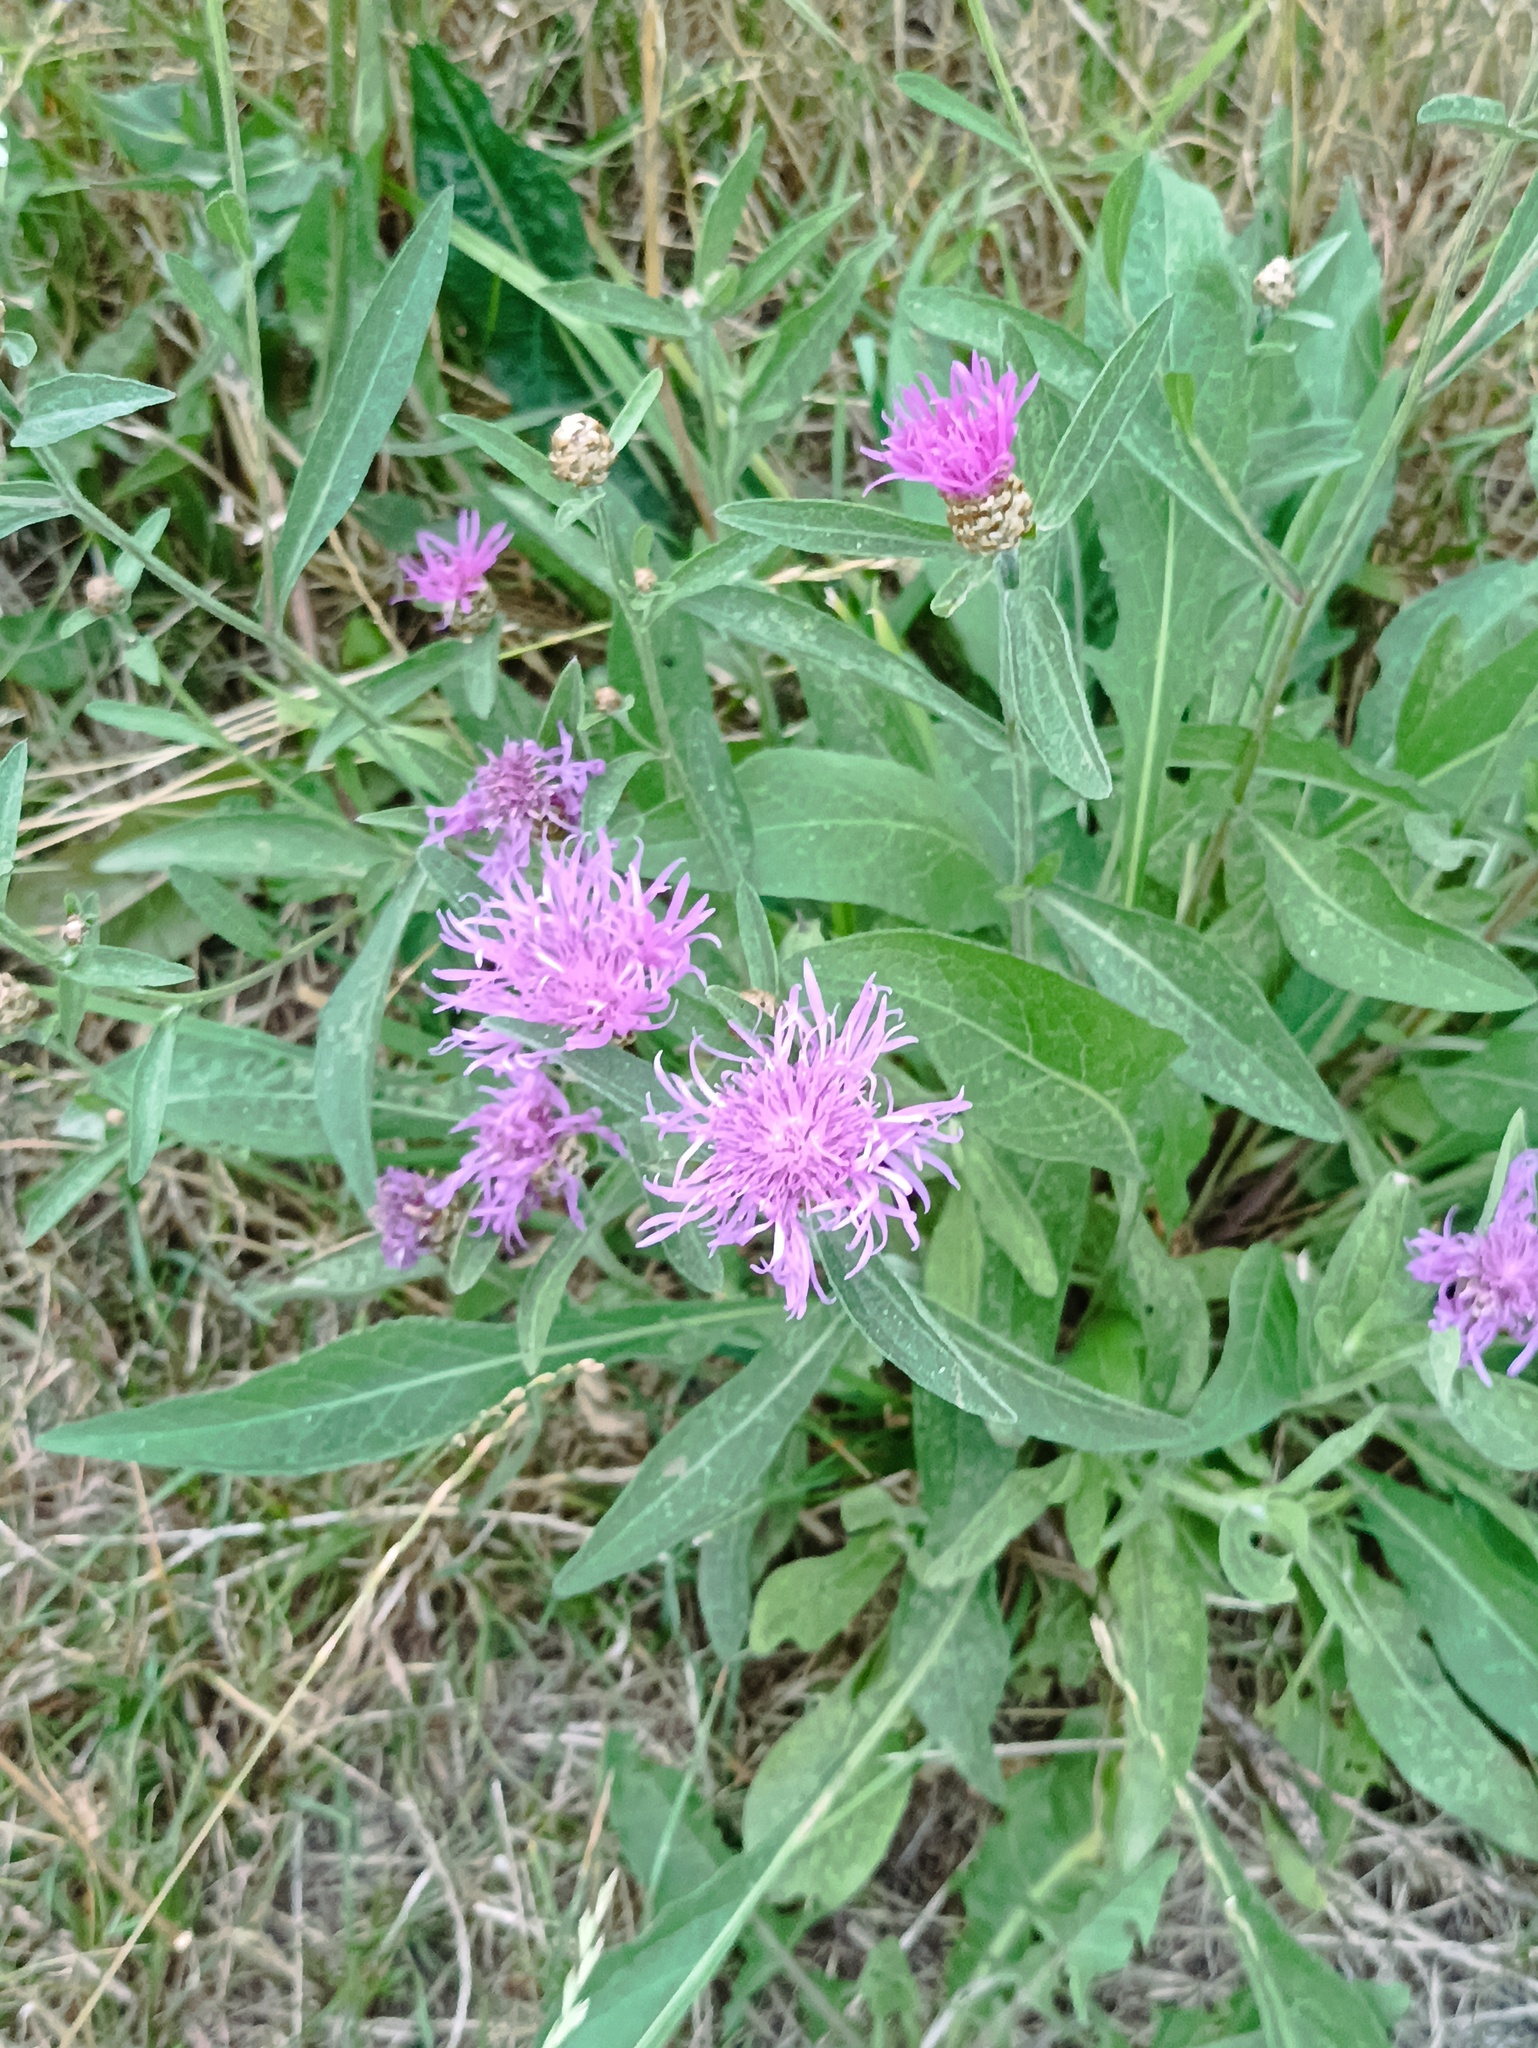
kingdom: Plantae
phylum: Tracheophyta
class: Magnoliopsida
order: Asterales
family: Asteraceae
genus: Centaurea
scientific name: Centaurea jacea
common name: Brown knapweed
